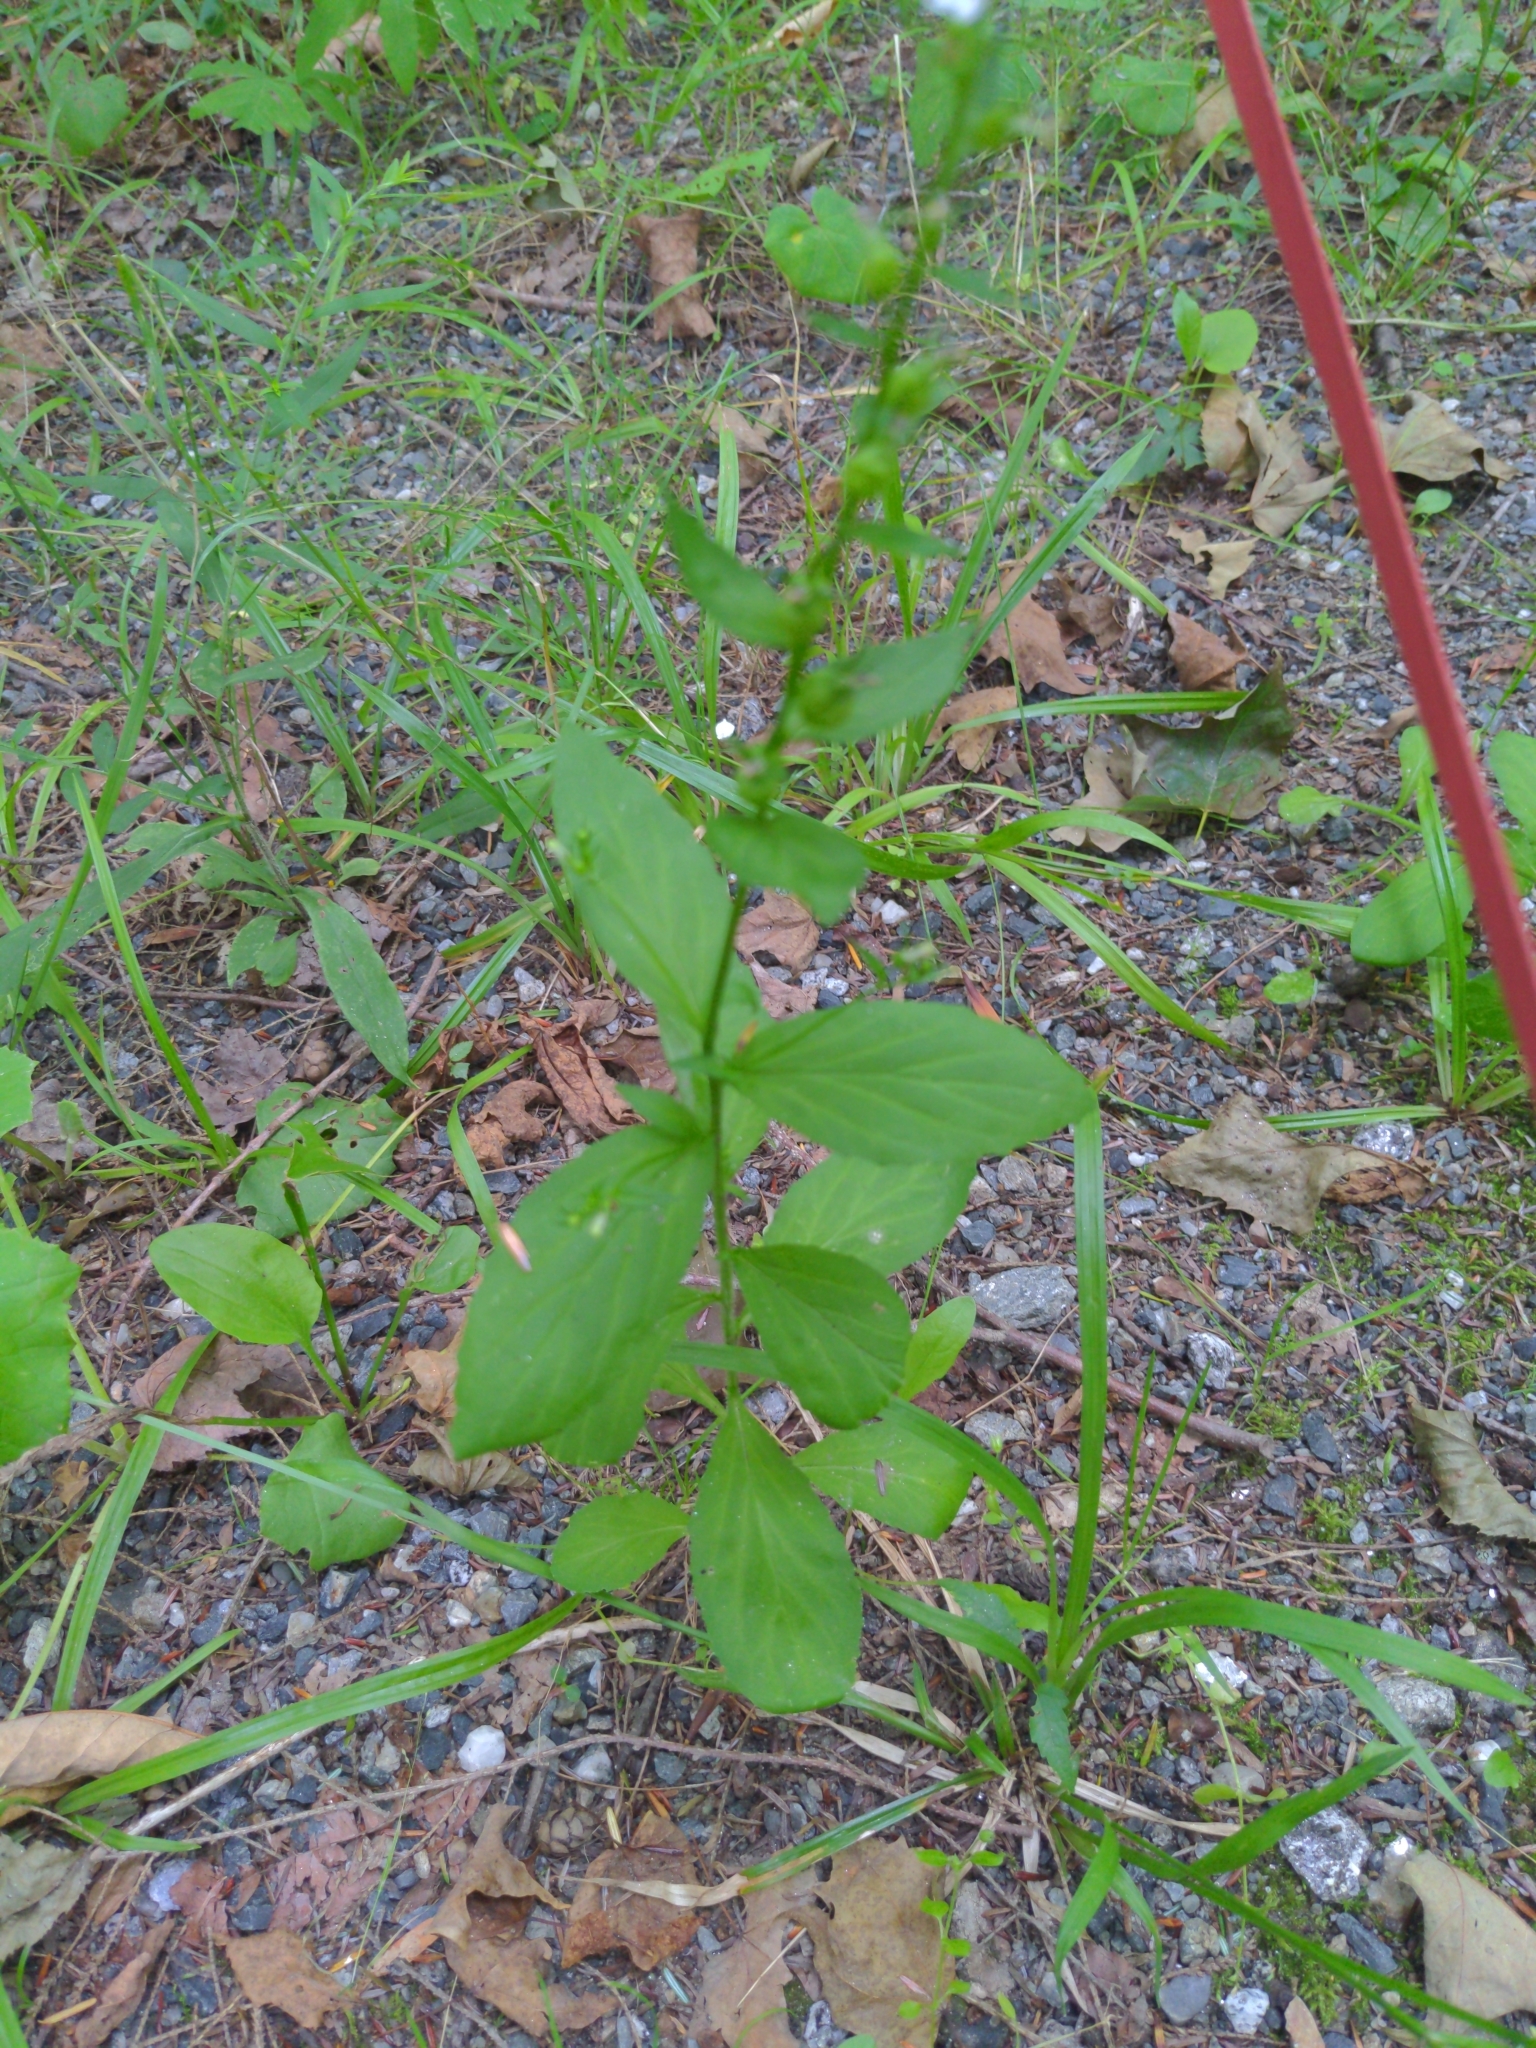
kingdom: Plantae
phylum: Tracheophyta
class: Magnoliopsida
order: Asterales
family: Campanulaceae
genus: Lobelia
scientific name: Lobelia inflata
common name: Indian tobacco
